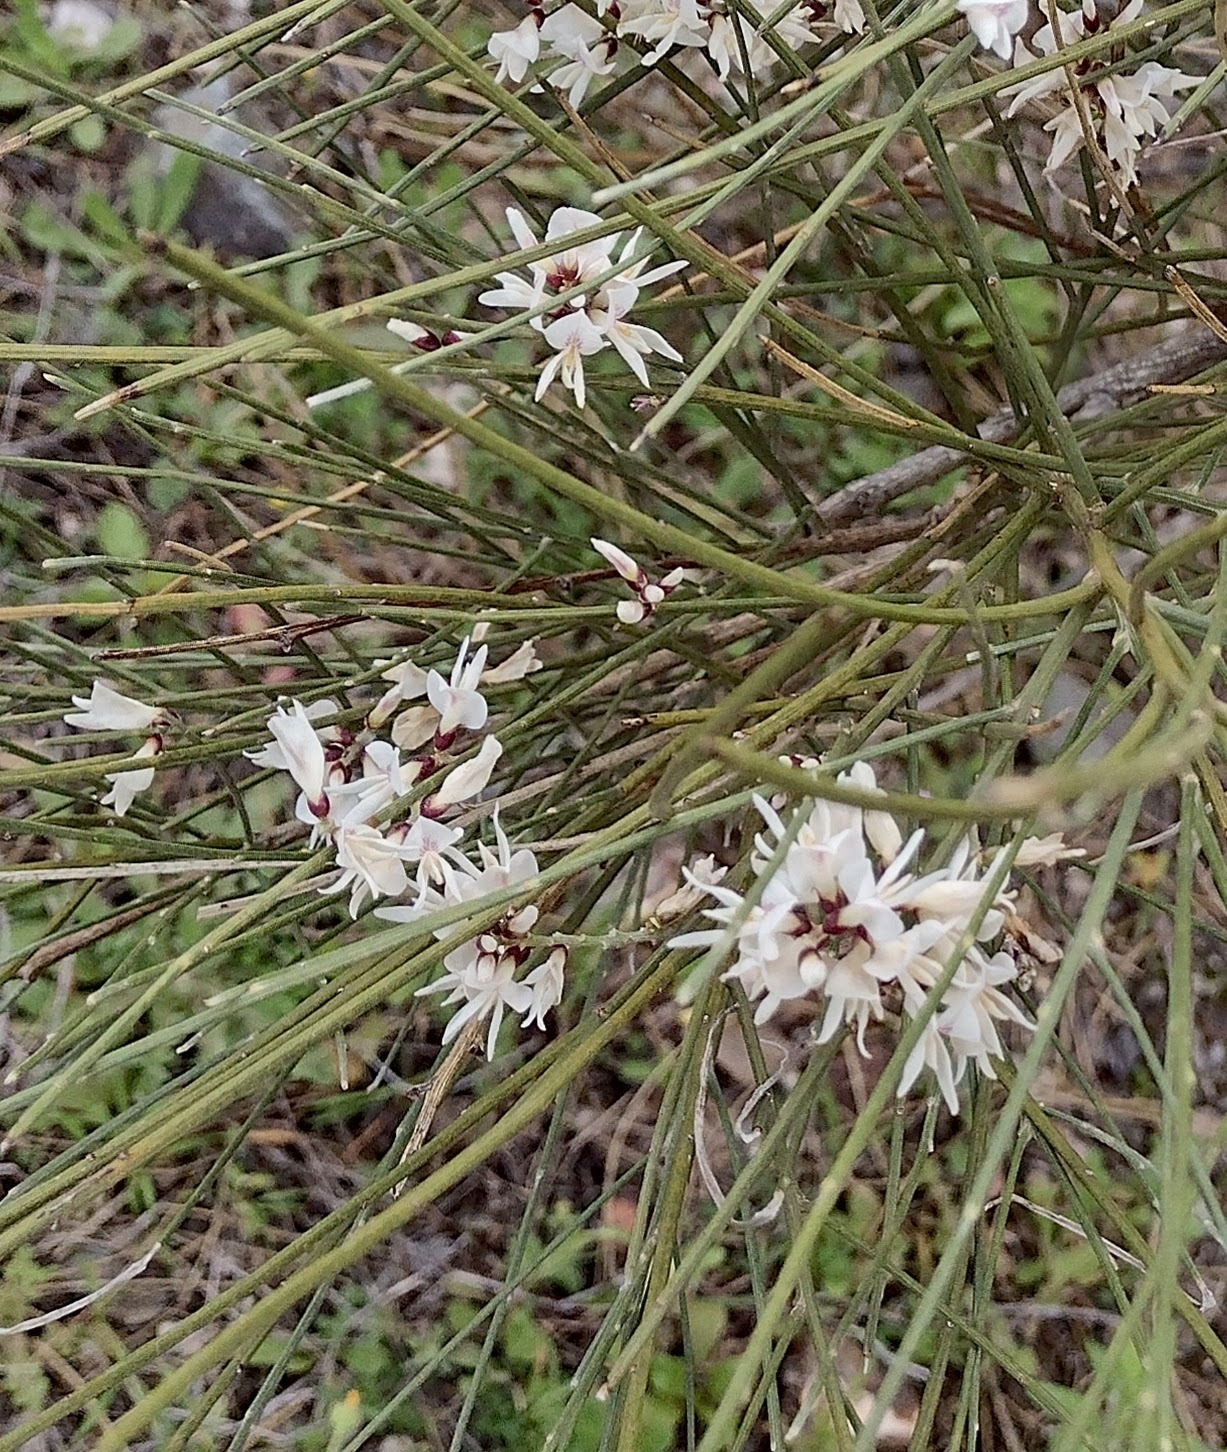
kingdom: Plantae
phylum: Tracheophyta
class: Magnoliopsida
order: Fabales
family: Fabaceae
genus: Retama
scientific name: Retama monosperma
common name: Bridal broom
